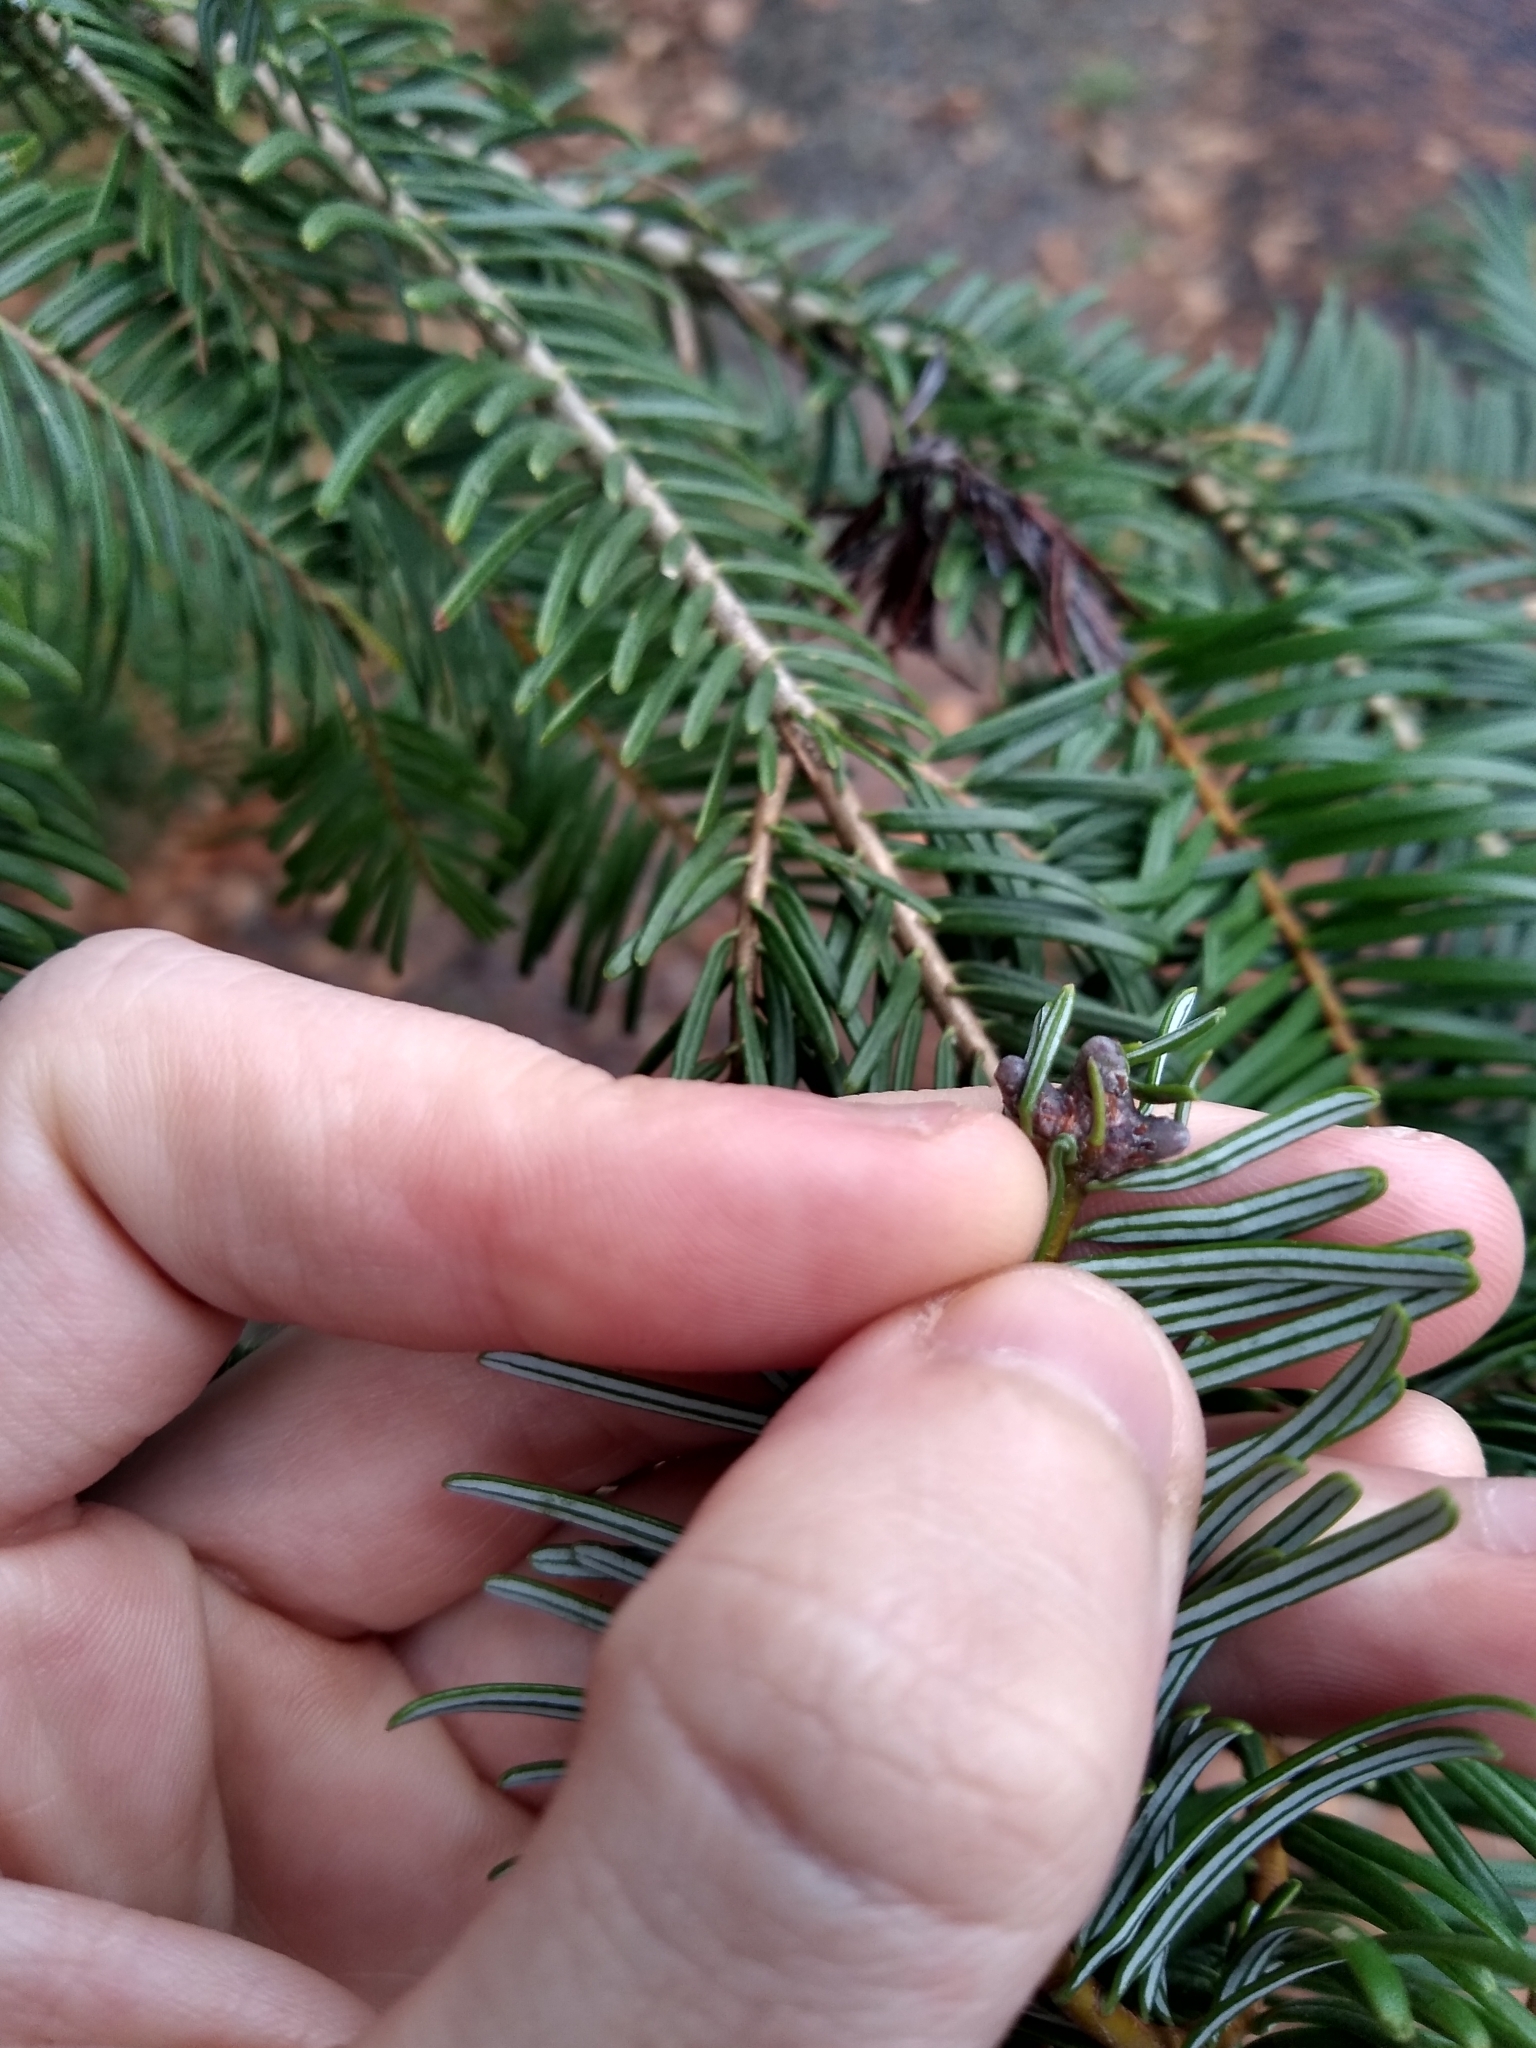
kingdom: Plantae
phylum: Tracheophyta
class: Pinopsida
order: Pinales
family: Pinaceae
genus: Abies
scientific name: Abies grandis
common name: Giant fir
